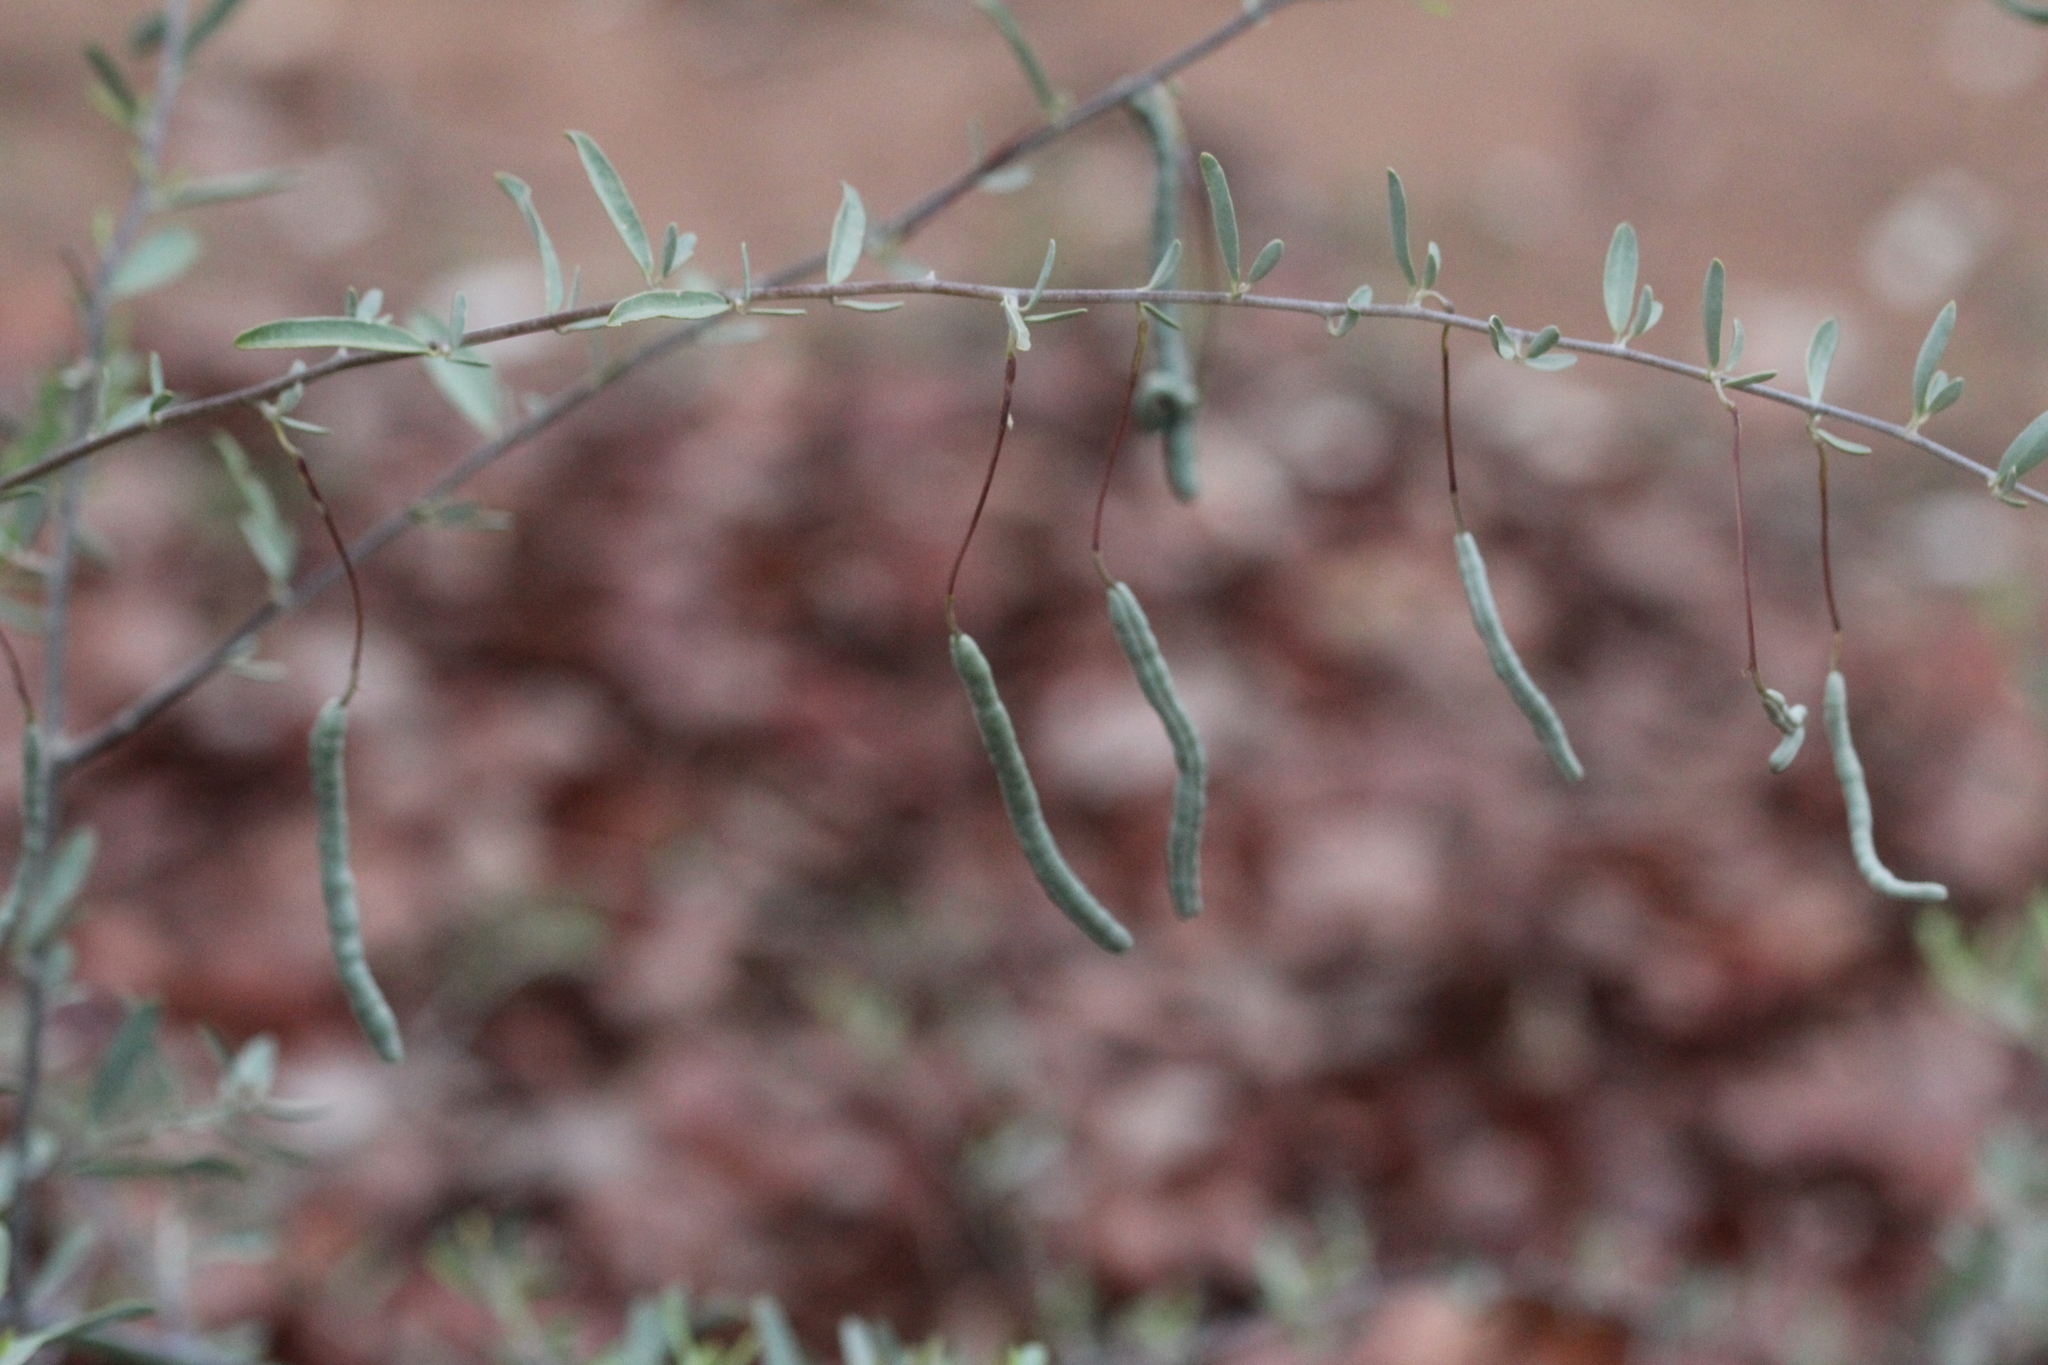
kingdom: Plantae
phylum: Tracheophyta
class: Magnoliopsida
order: Brassicales
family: Capparaceae
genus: Cadaba
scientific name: Cadaba termitaria
